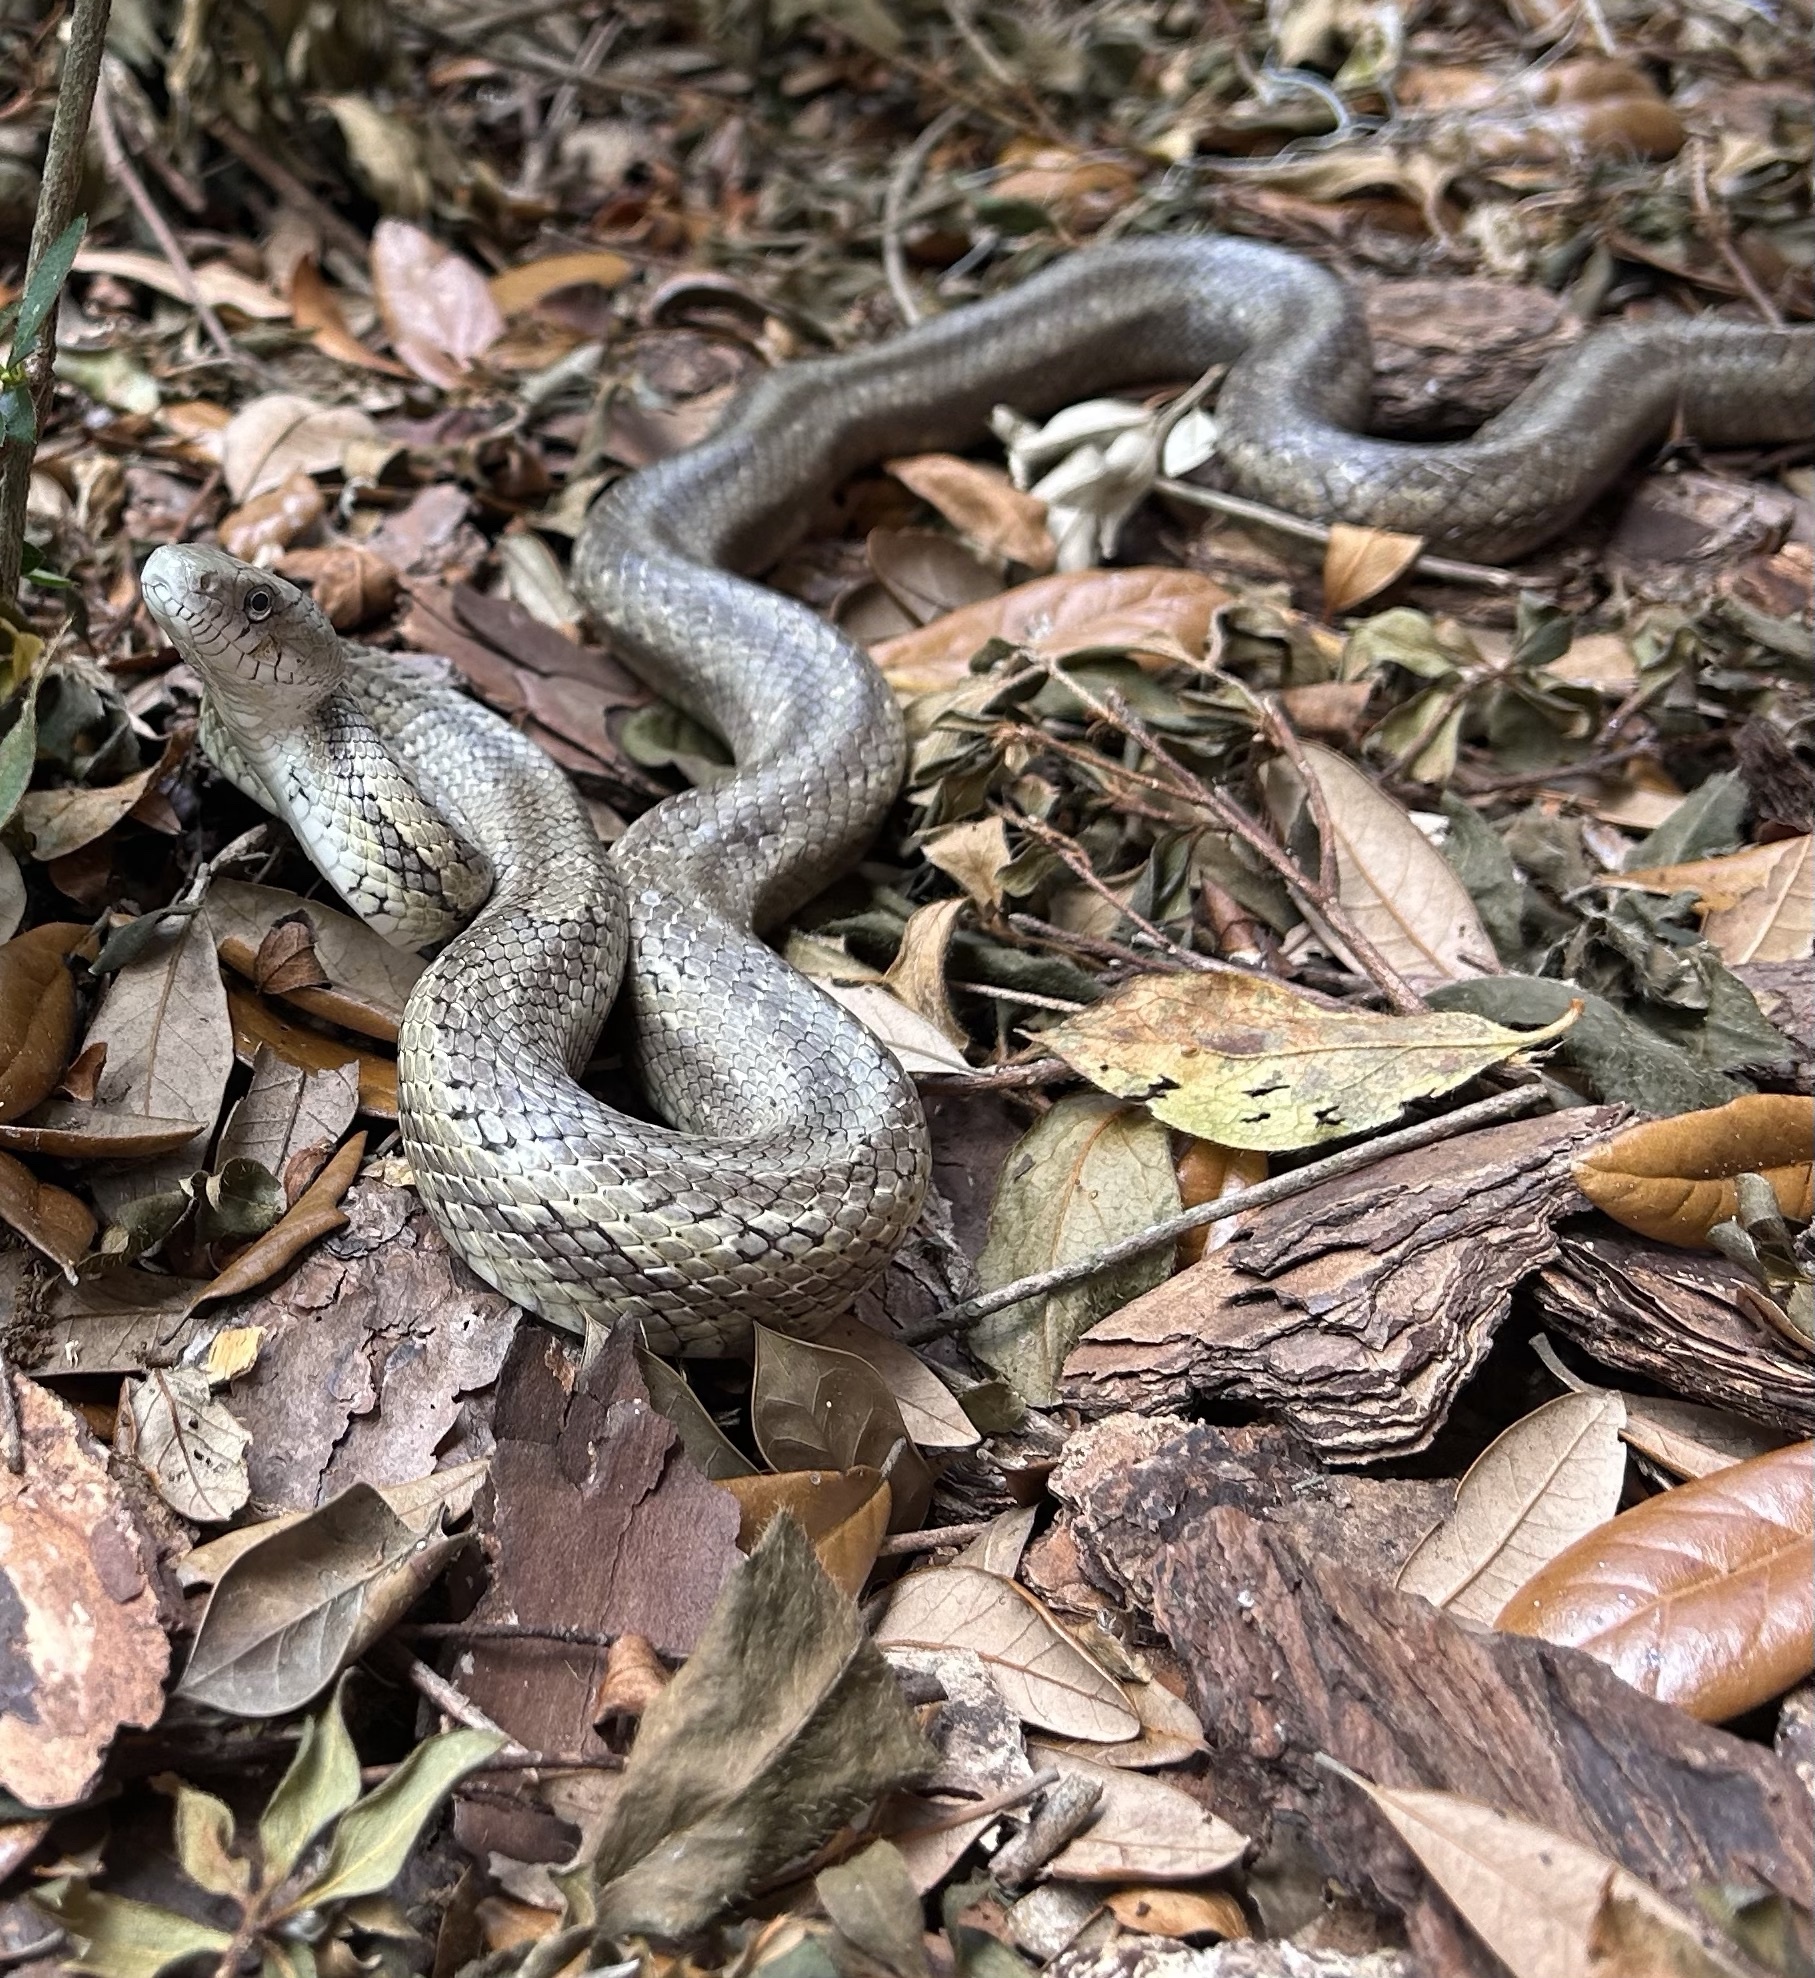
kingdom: Animalia
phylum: Chordata
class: Squamata
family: Colubridae
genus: Pantherophis
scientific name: Pantherophis alleghaniensis
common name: Eastern rat snake
